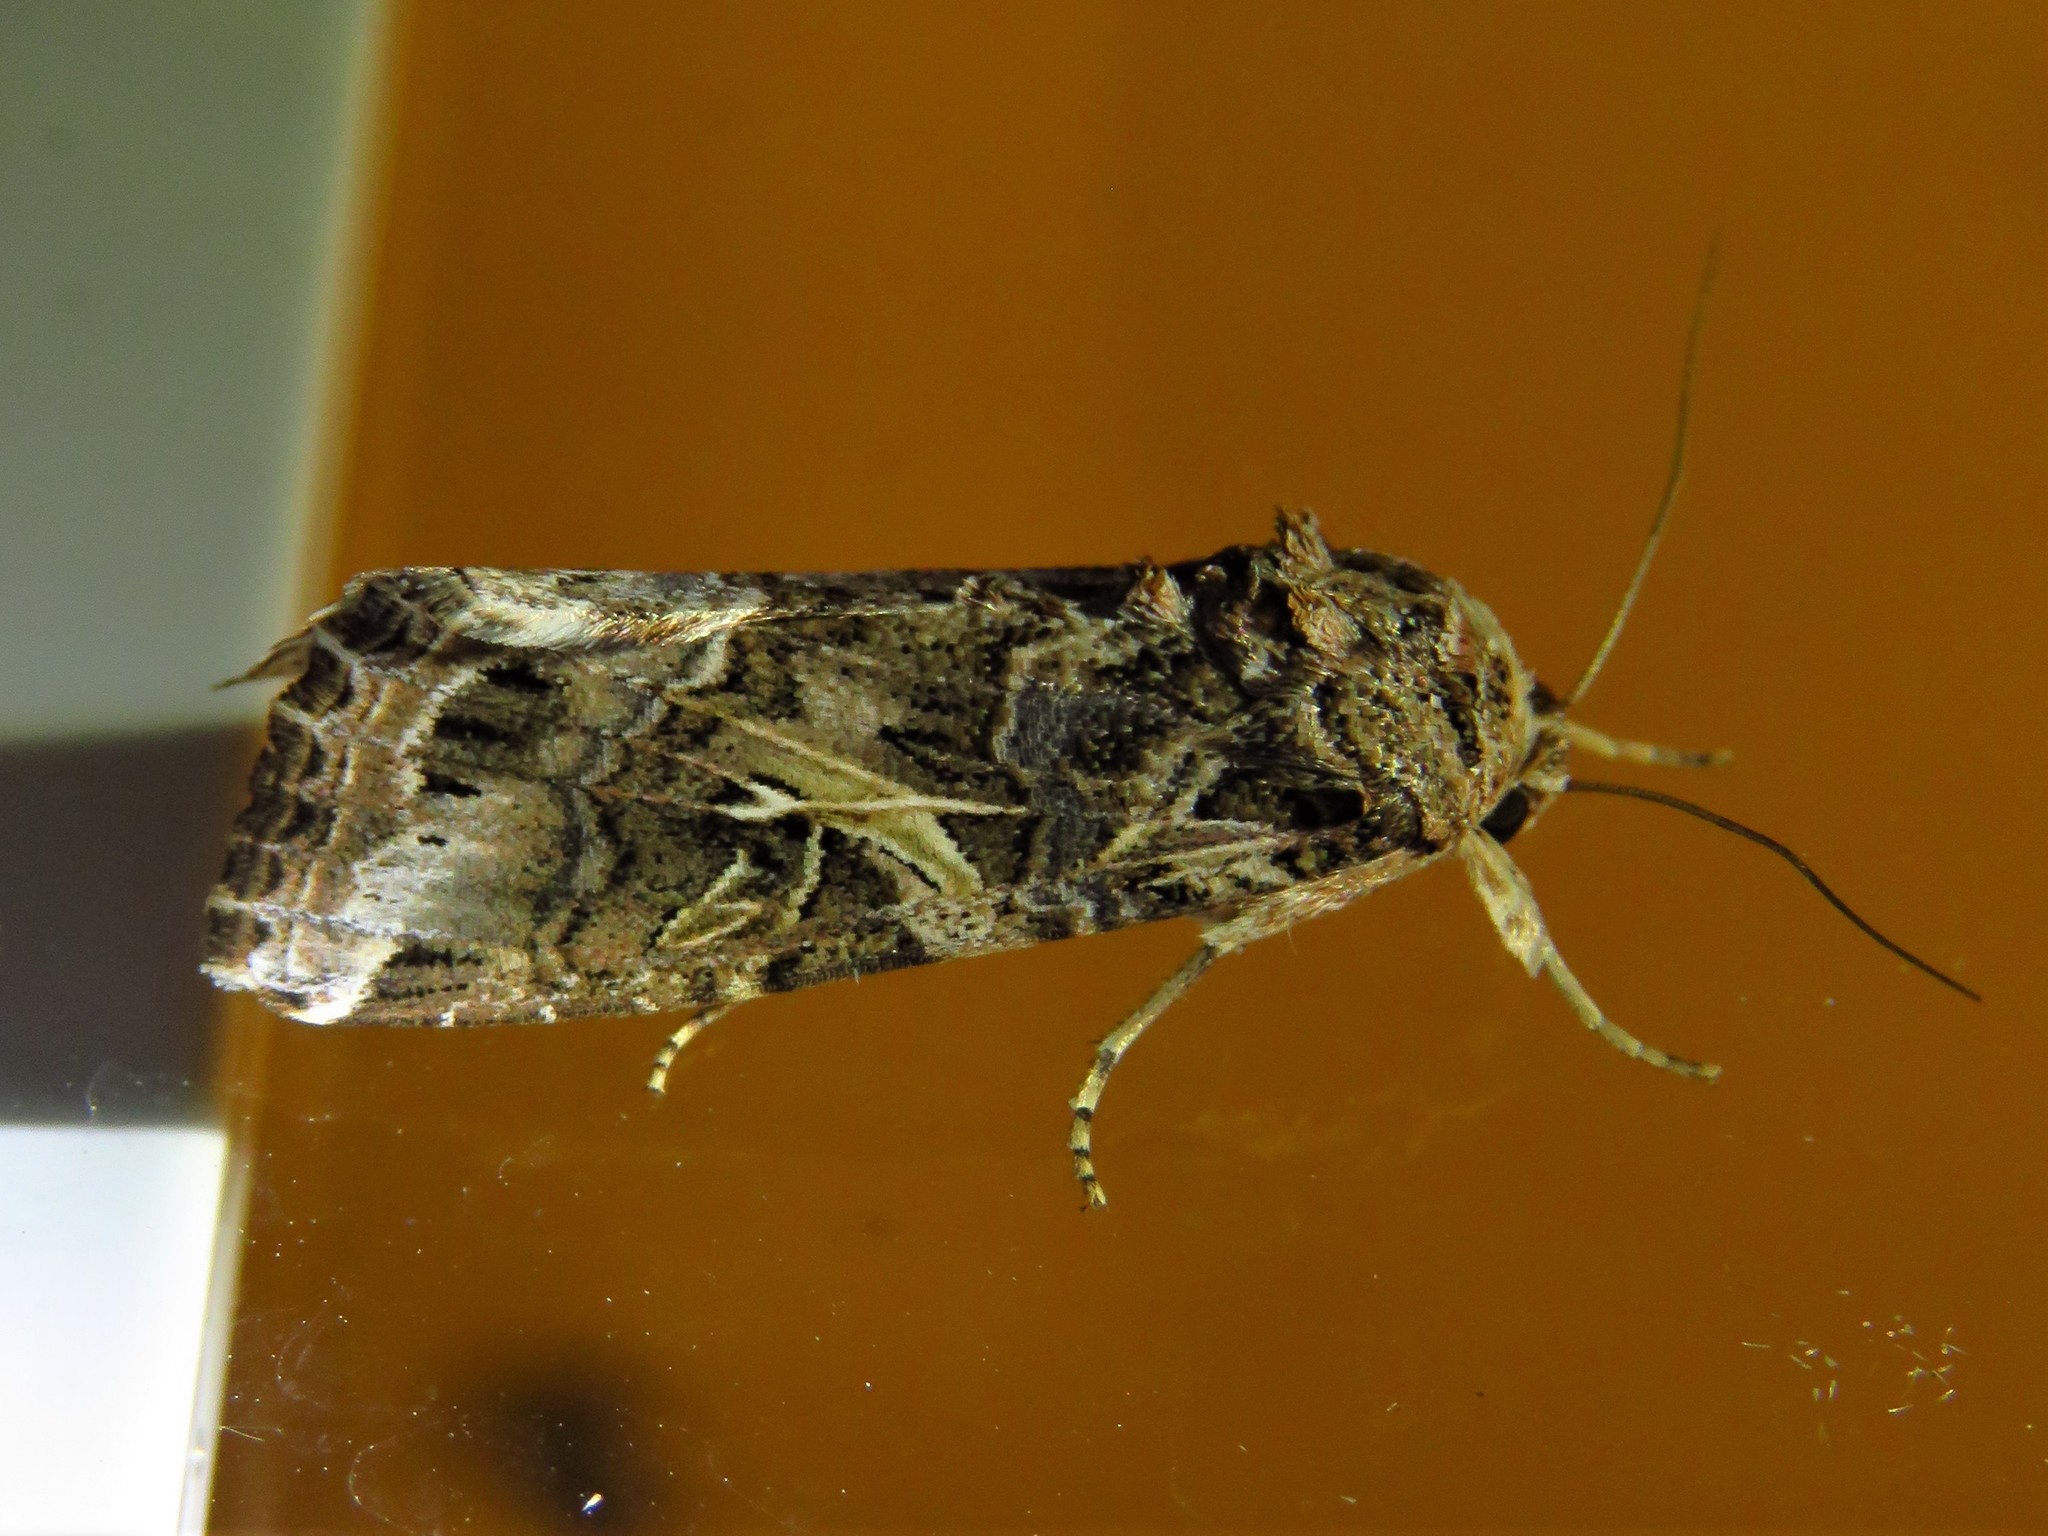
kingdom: Animalia
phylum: Arthropoda
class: Insecta
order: Lepidoptera
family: Noctuidae
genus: Spodoptera
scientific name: Spodoptera ornithogalli
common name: Yellow-striped armyworm
